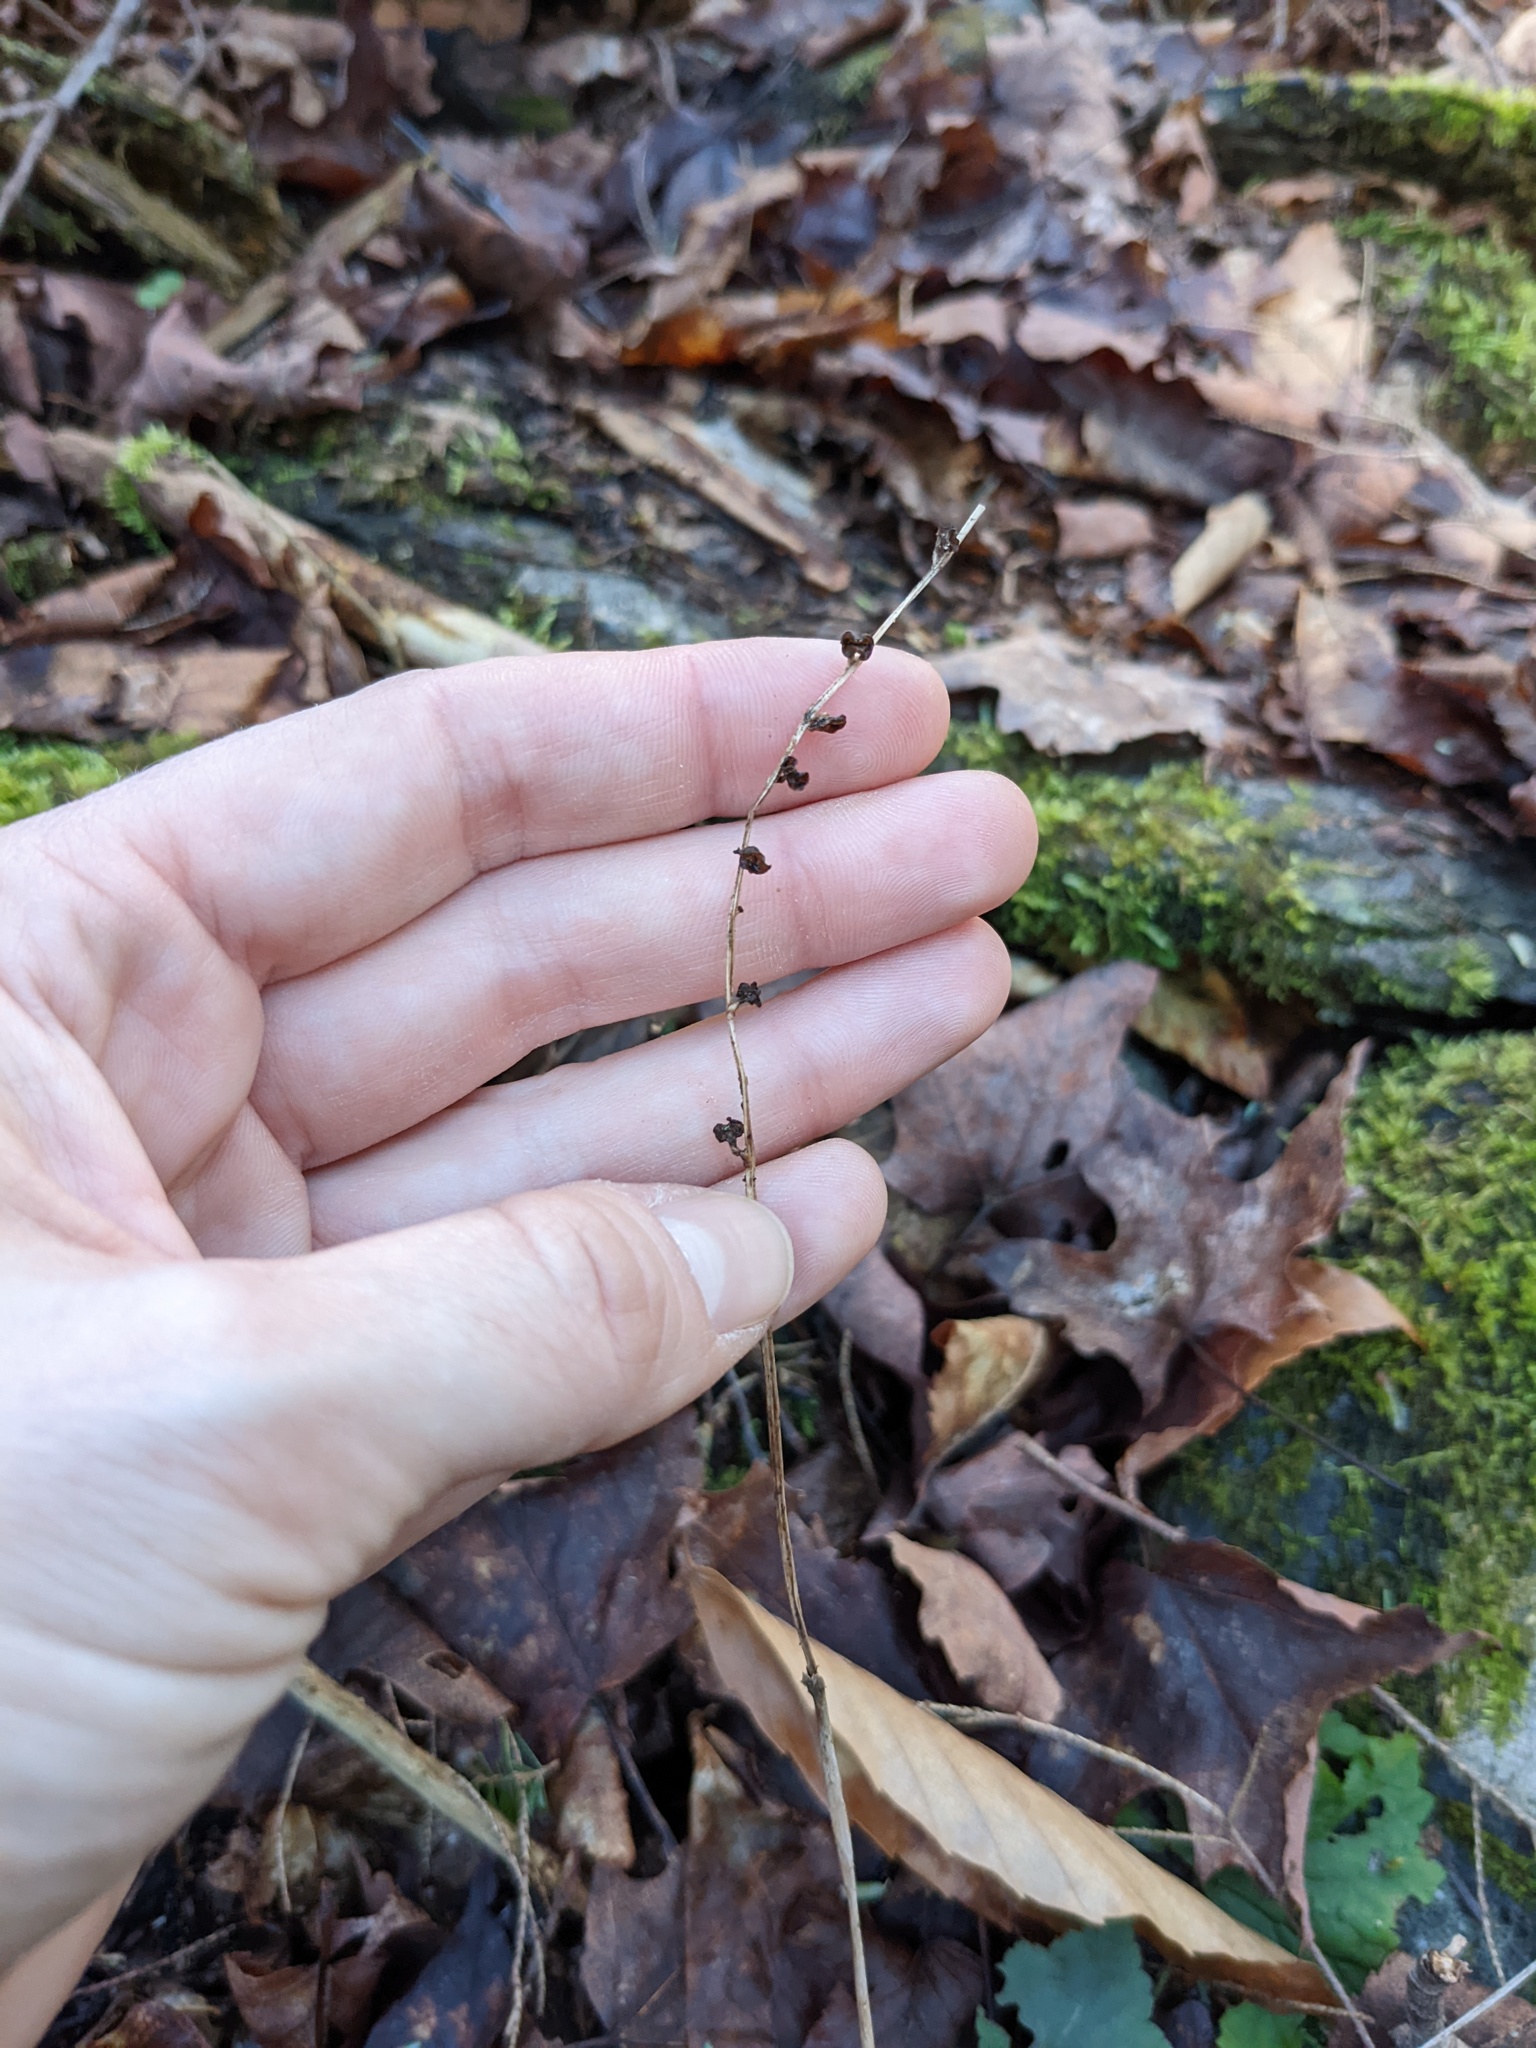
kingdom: Plantae
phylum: Tracheophyta
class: Magnoliopsida
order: Saxifragales
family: Saxifragaceae
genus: Mitella
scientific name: Mitella diphylla
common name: Coolwort
